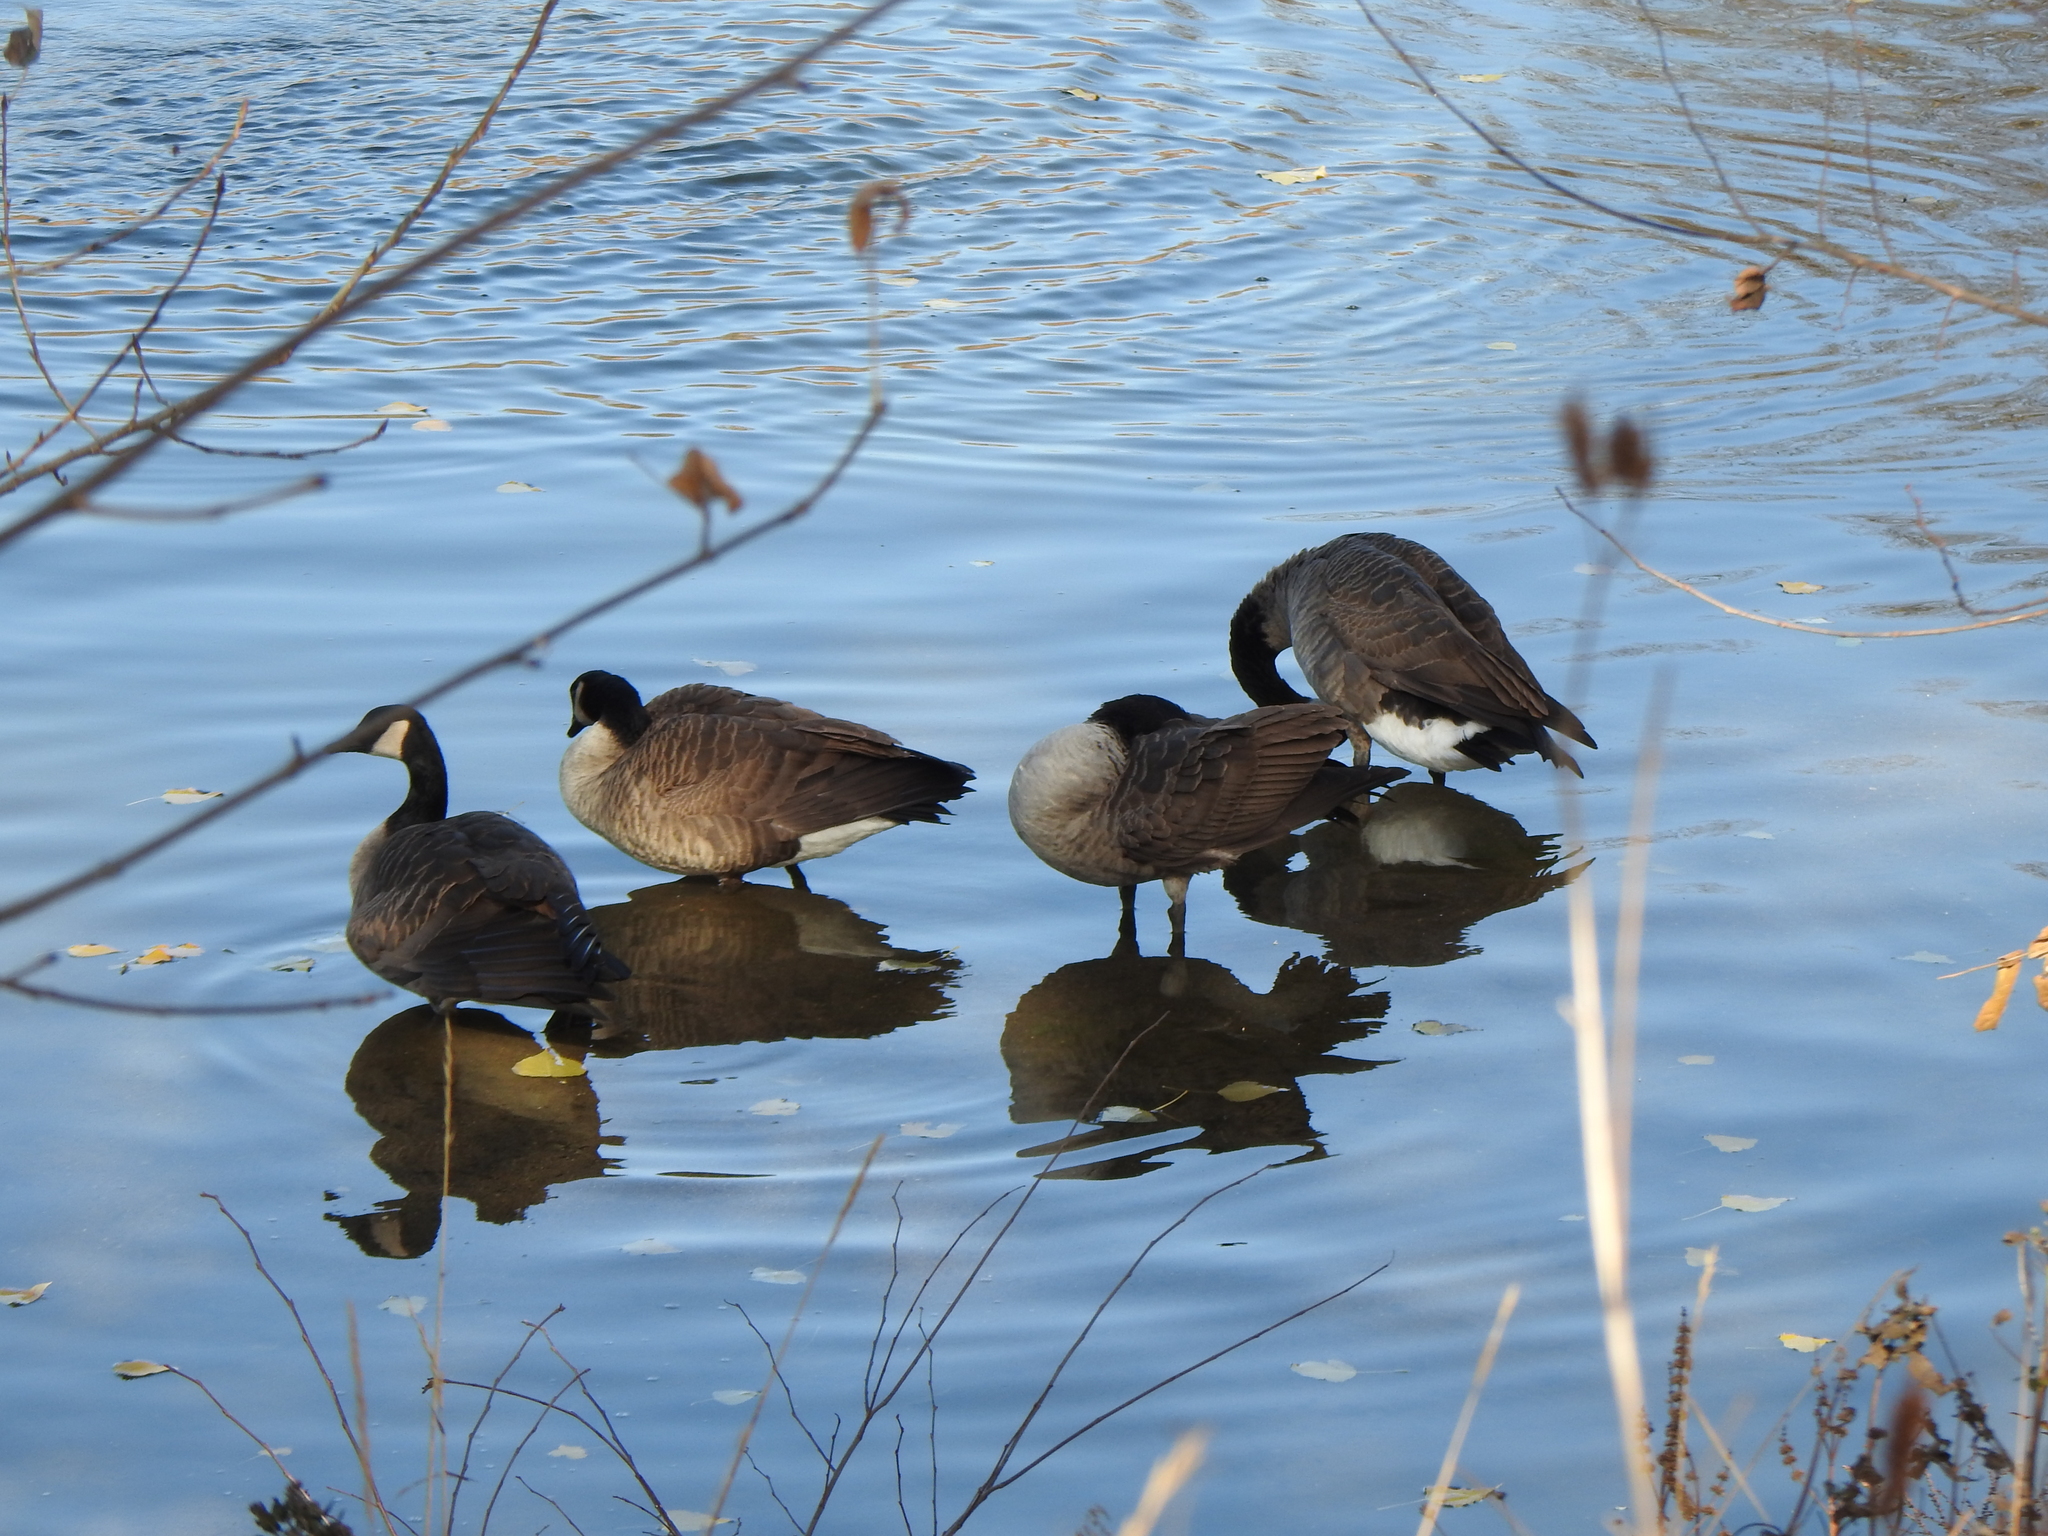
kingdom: Animalia
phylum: Chordata
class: Aves
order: Anseriformes
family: Anatidae
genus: Branta
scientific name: Branta canadensis
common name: Canada goose
